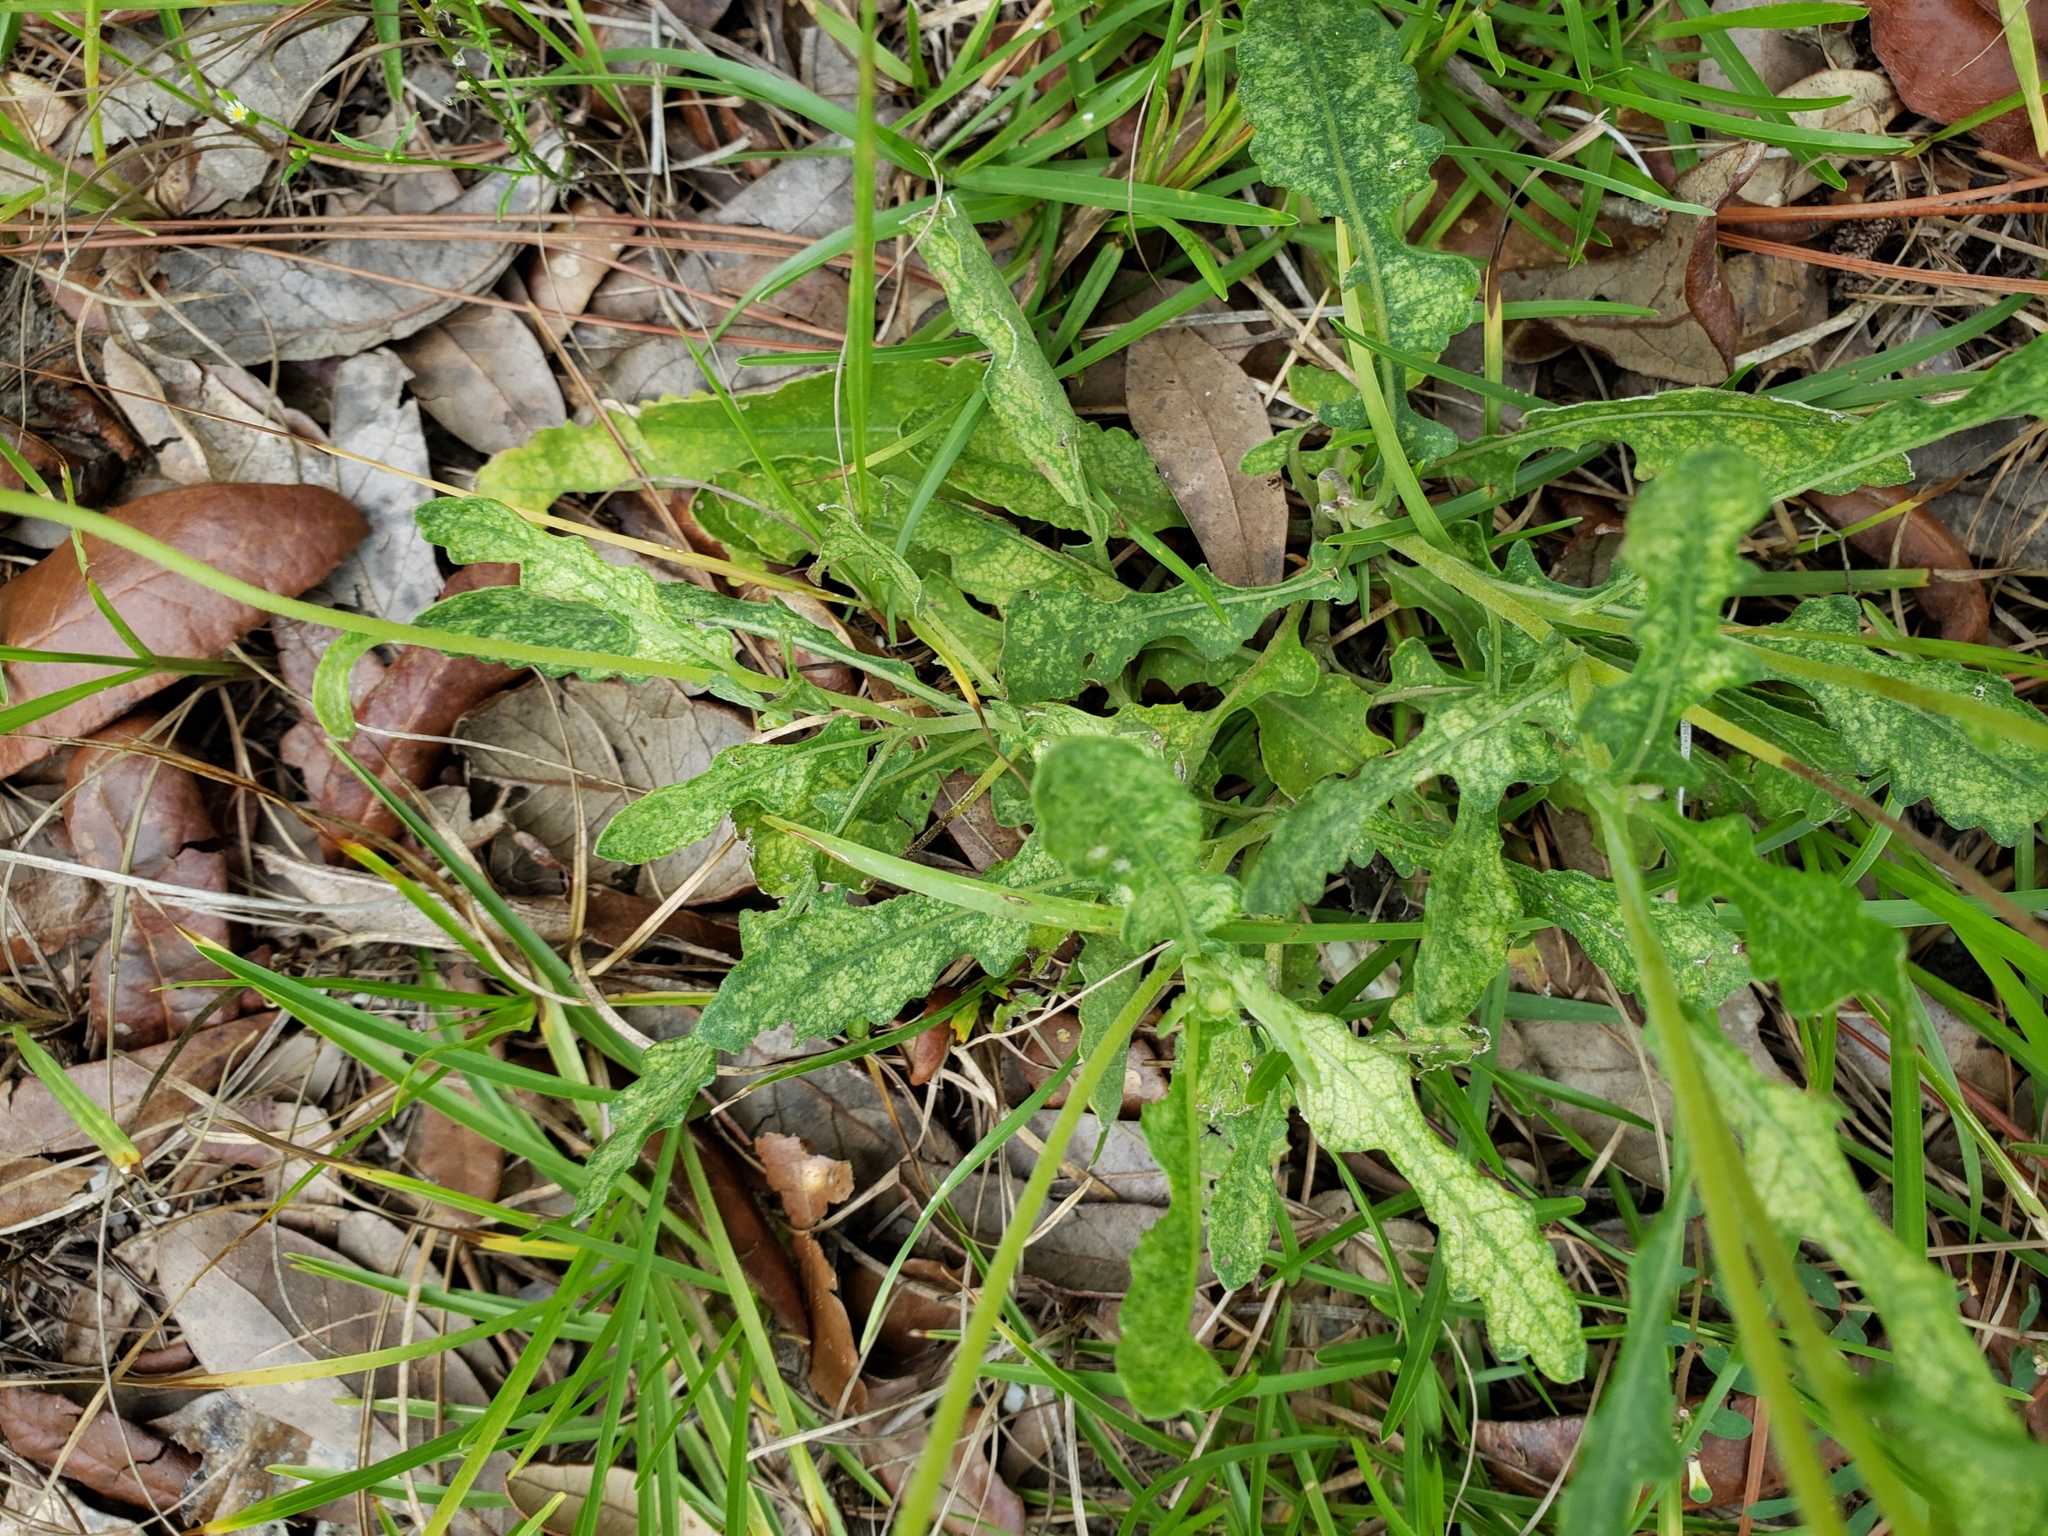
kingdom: Plantae
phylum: Tracheophyta
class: Magnoliopsida
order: Asterales
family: Asteraceae
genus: Berlandiera
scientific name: Berlandiera subacaulis
